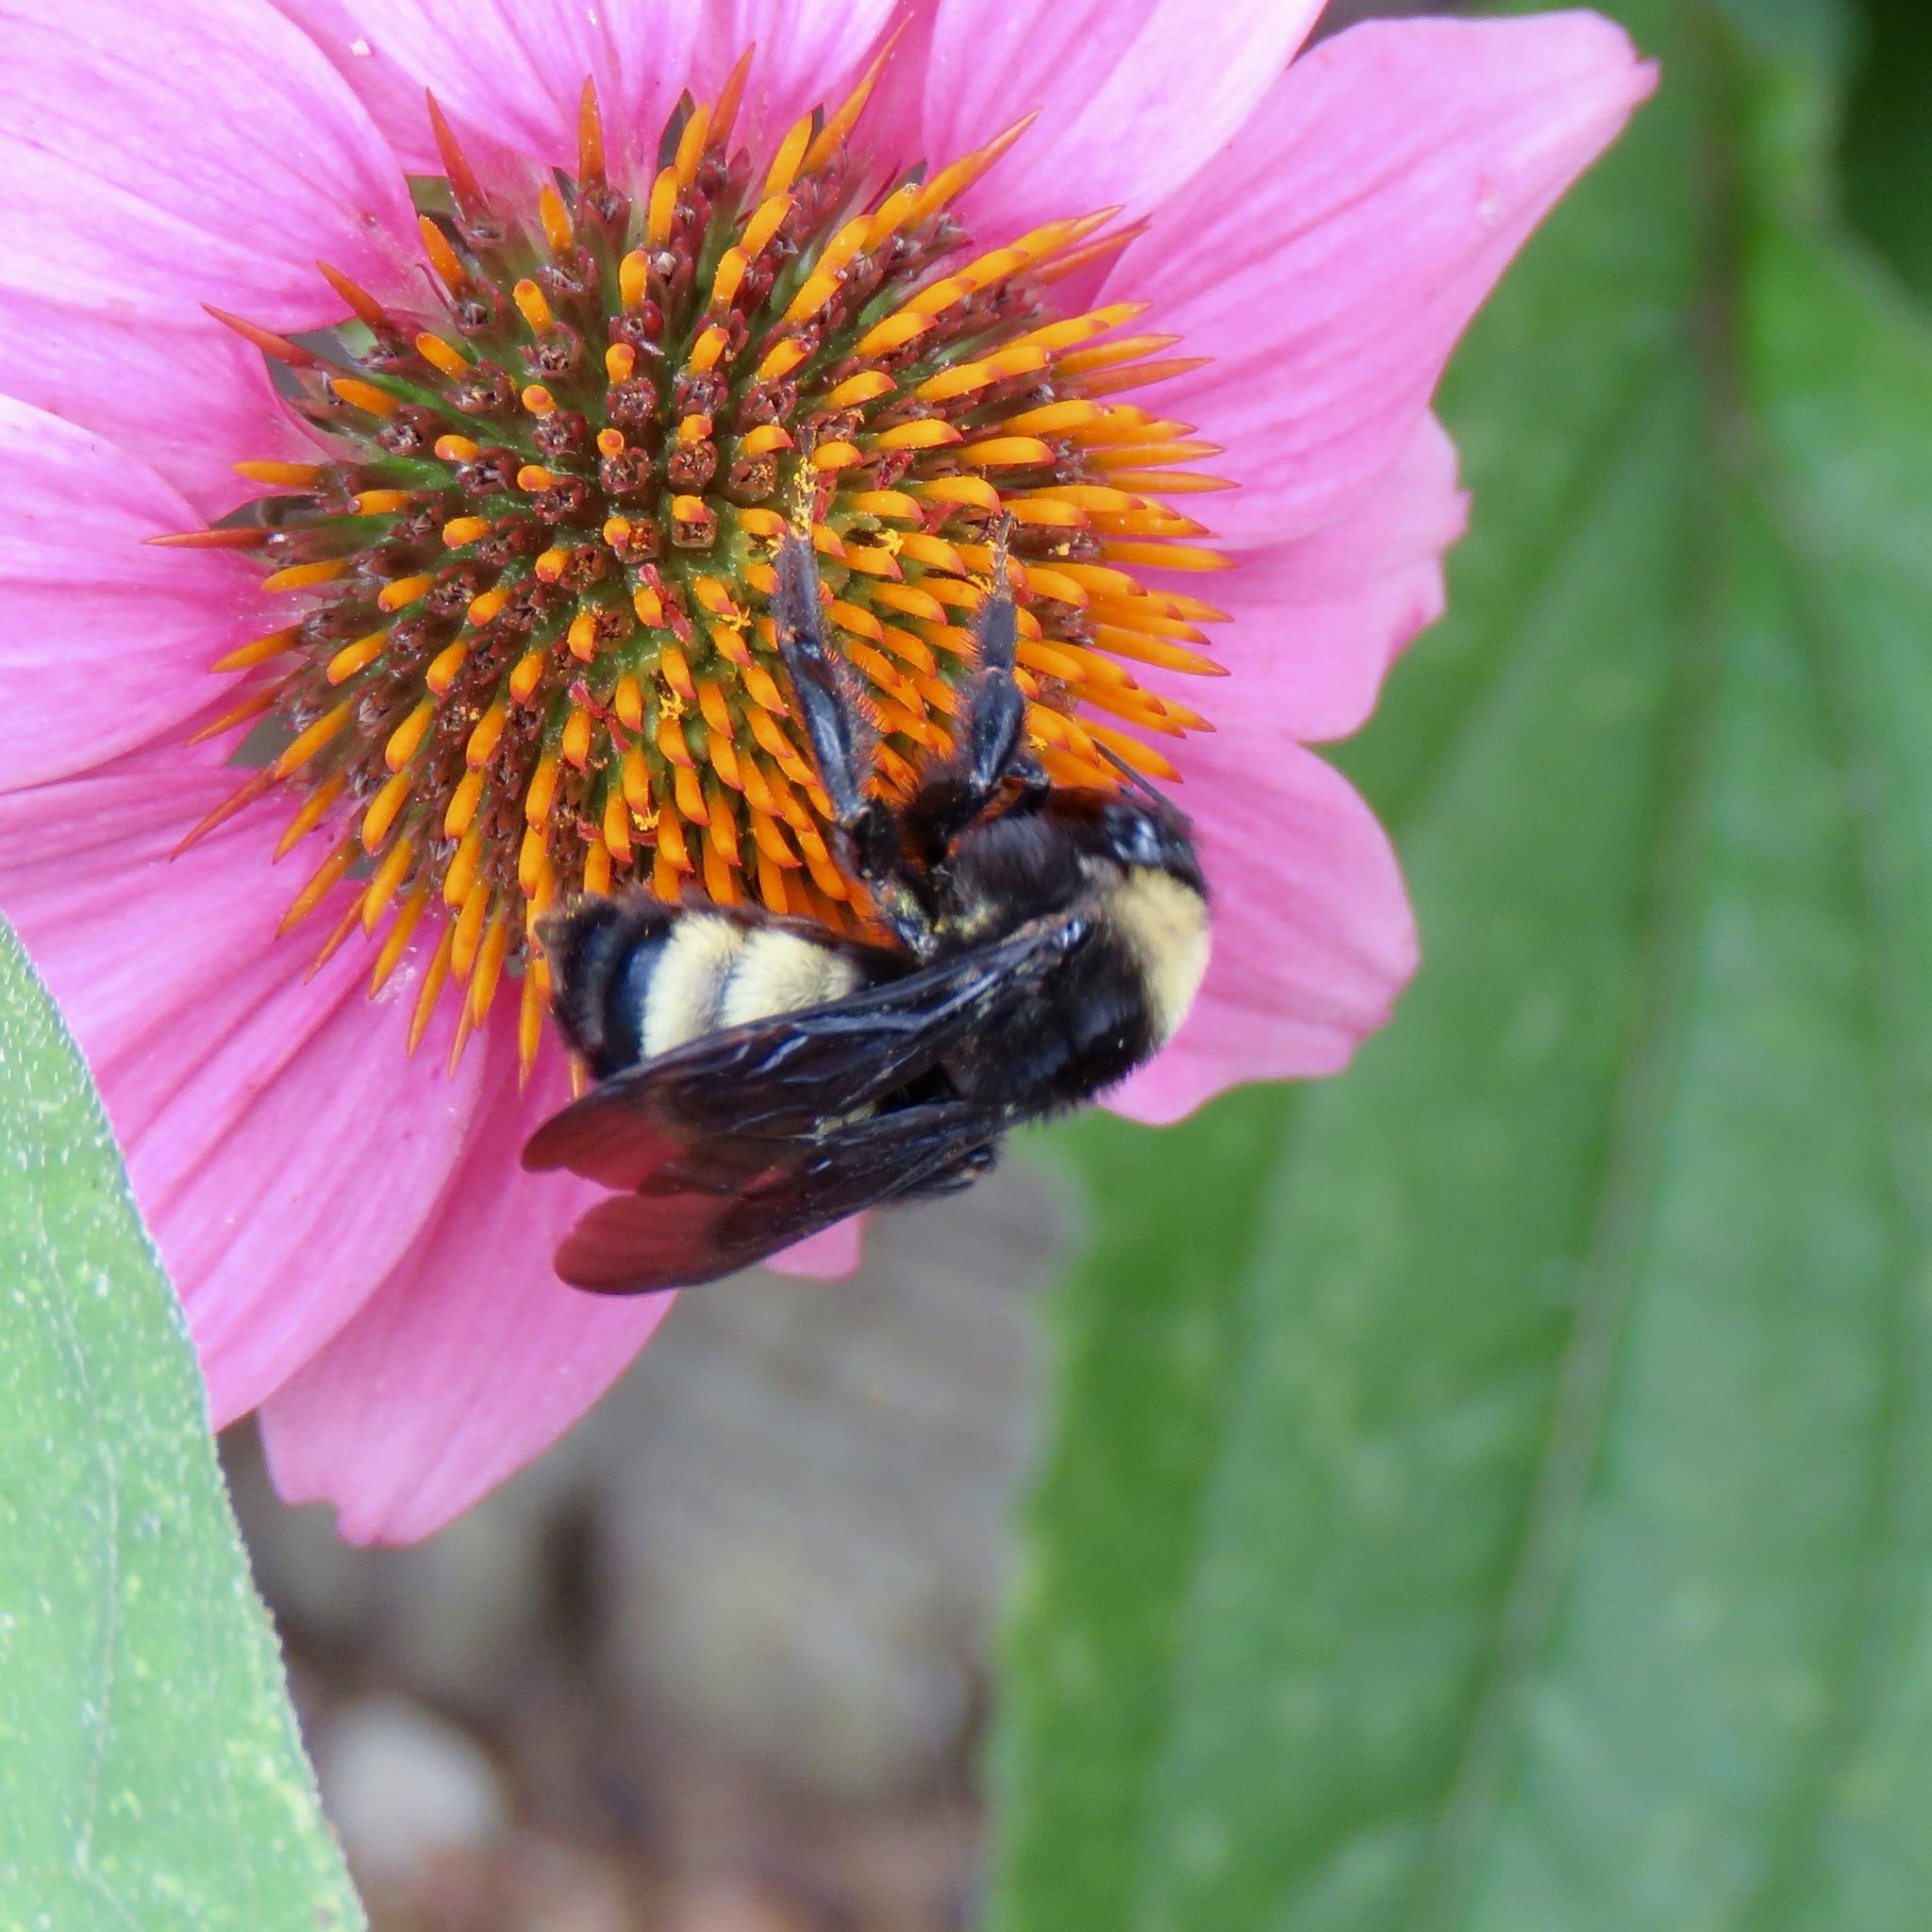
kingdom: Animalia
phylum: Arthropoda
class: Insecta
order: Hymenoptera
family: Apidae
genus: Bombus
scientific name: Bombus pensylvanicus
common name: Bumble bee
